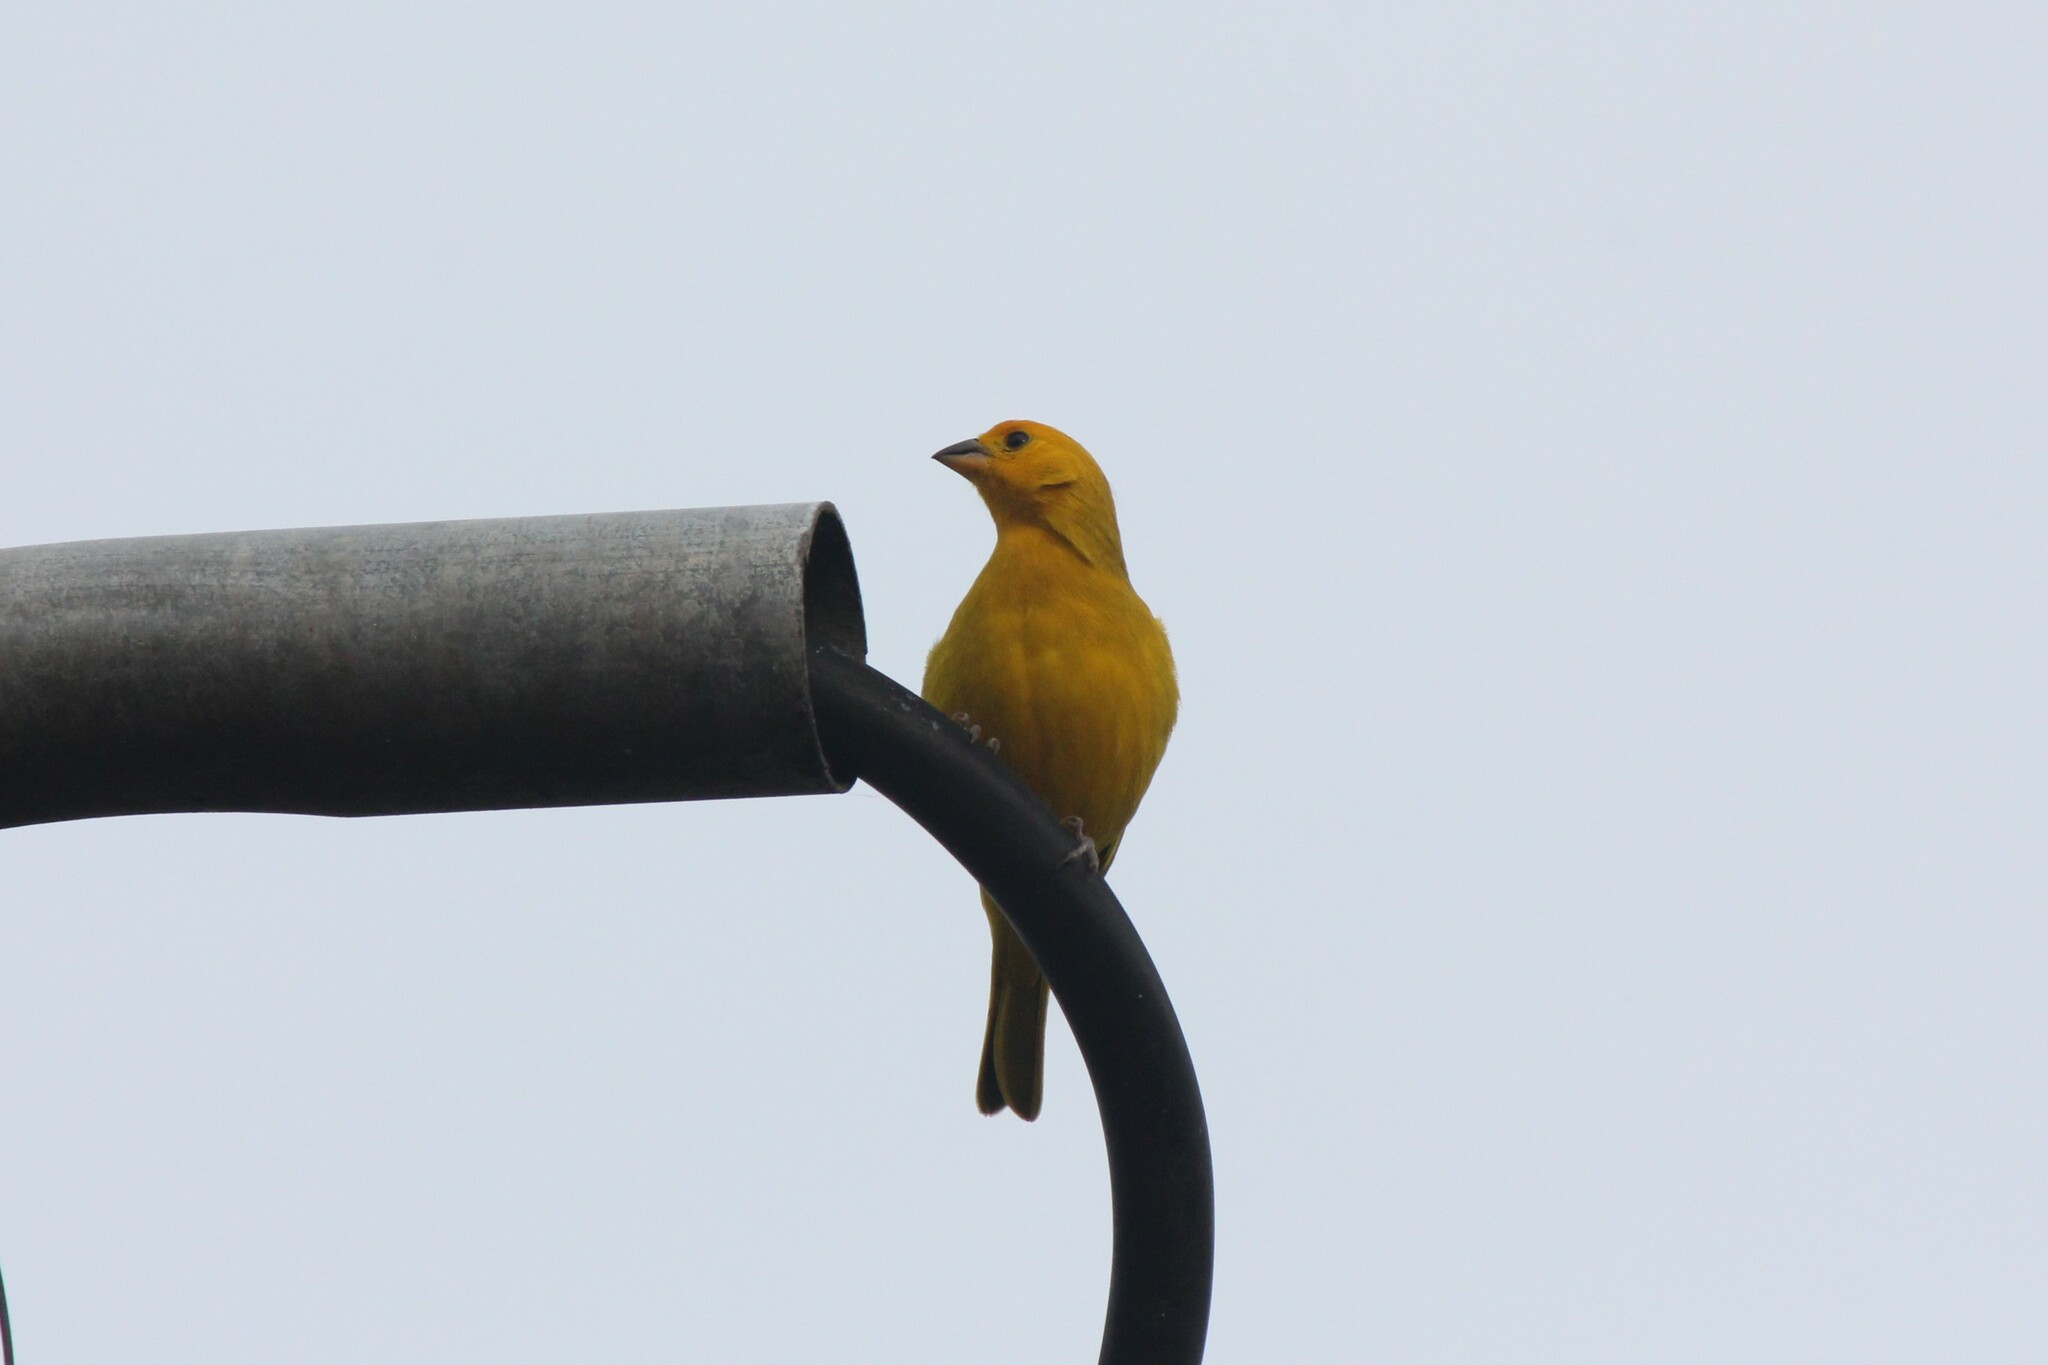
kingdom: Animalia
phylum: Chordata
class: Aves
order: Passeriformes
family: Thraupidae
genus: Sicalis
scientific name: Sicalis flaveola
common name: Saffron finch
